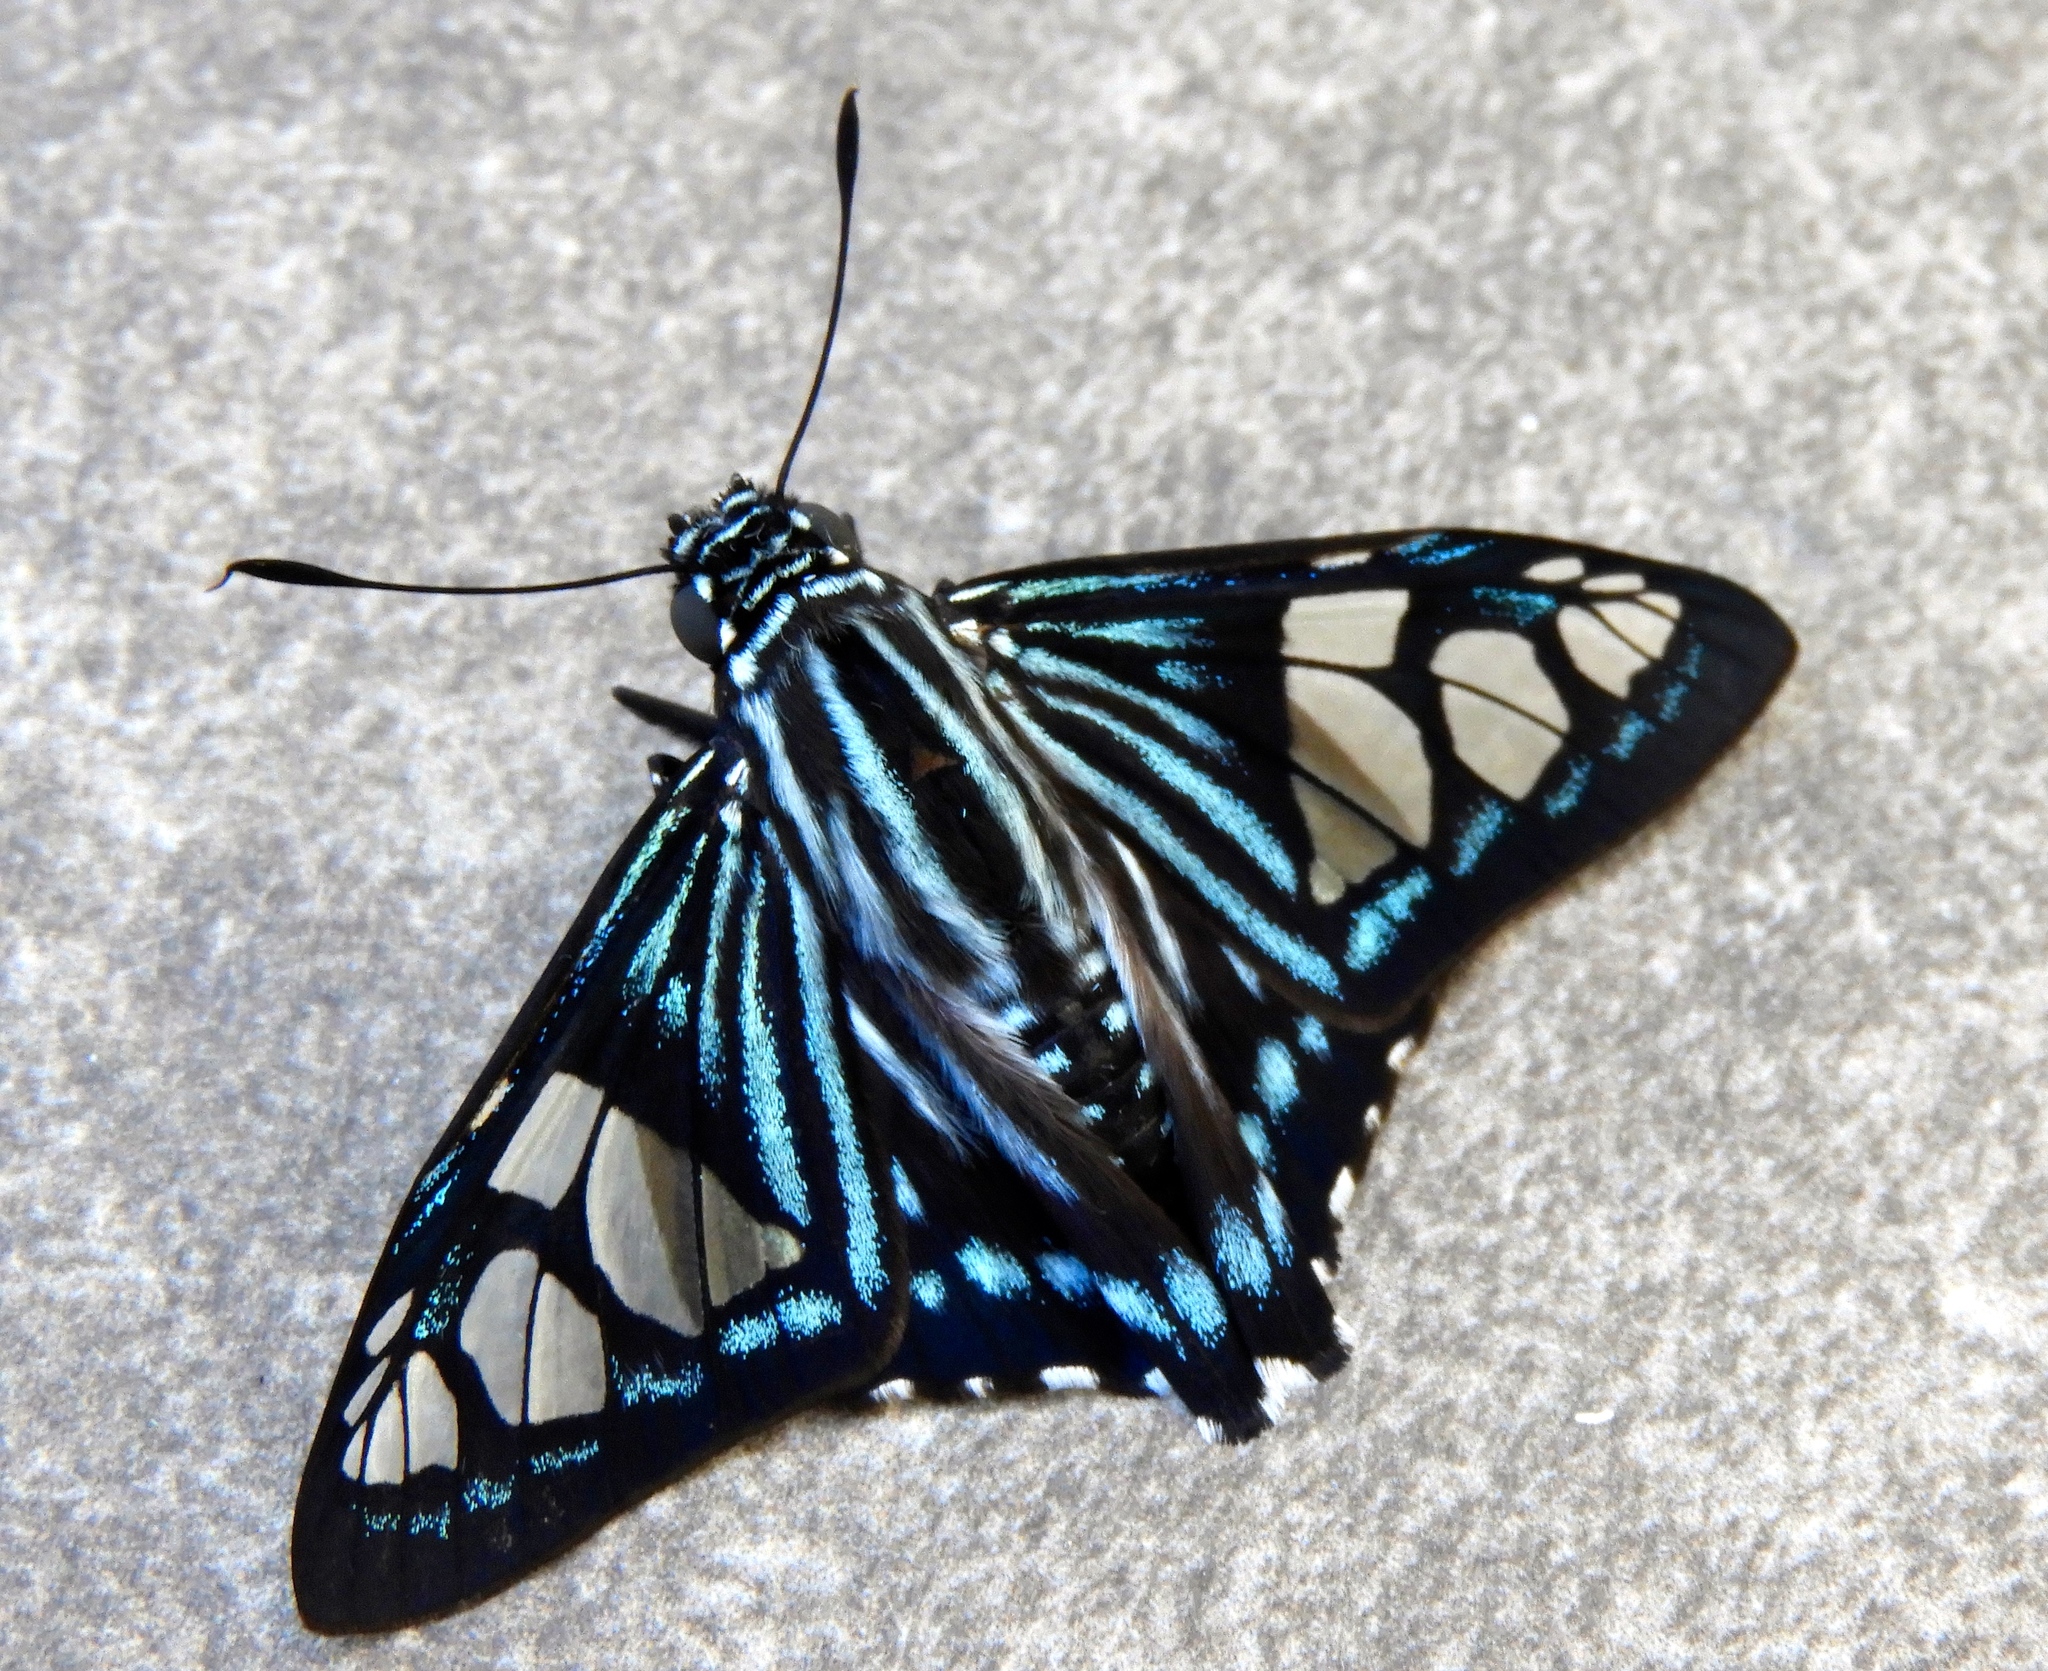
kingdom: Animalia
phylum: Arthropoda
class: Insecta
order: Lepidoptera
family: Hesperiidae
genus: Phocides
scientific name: Phocides pigmalion
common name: Mangrove skipper
